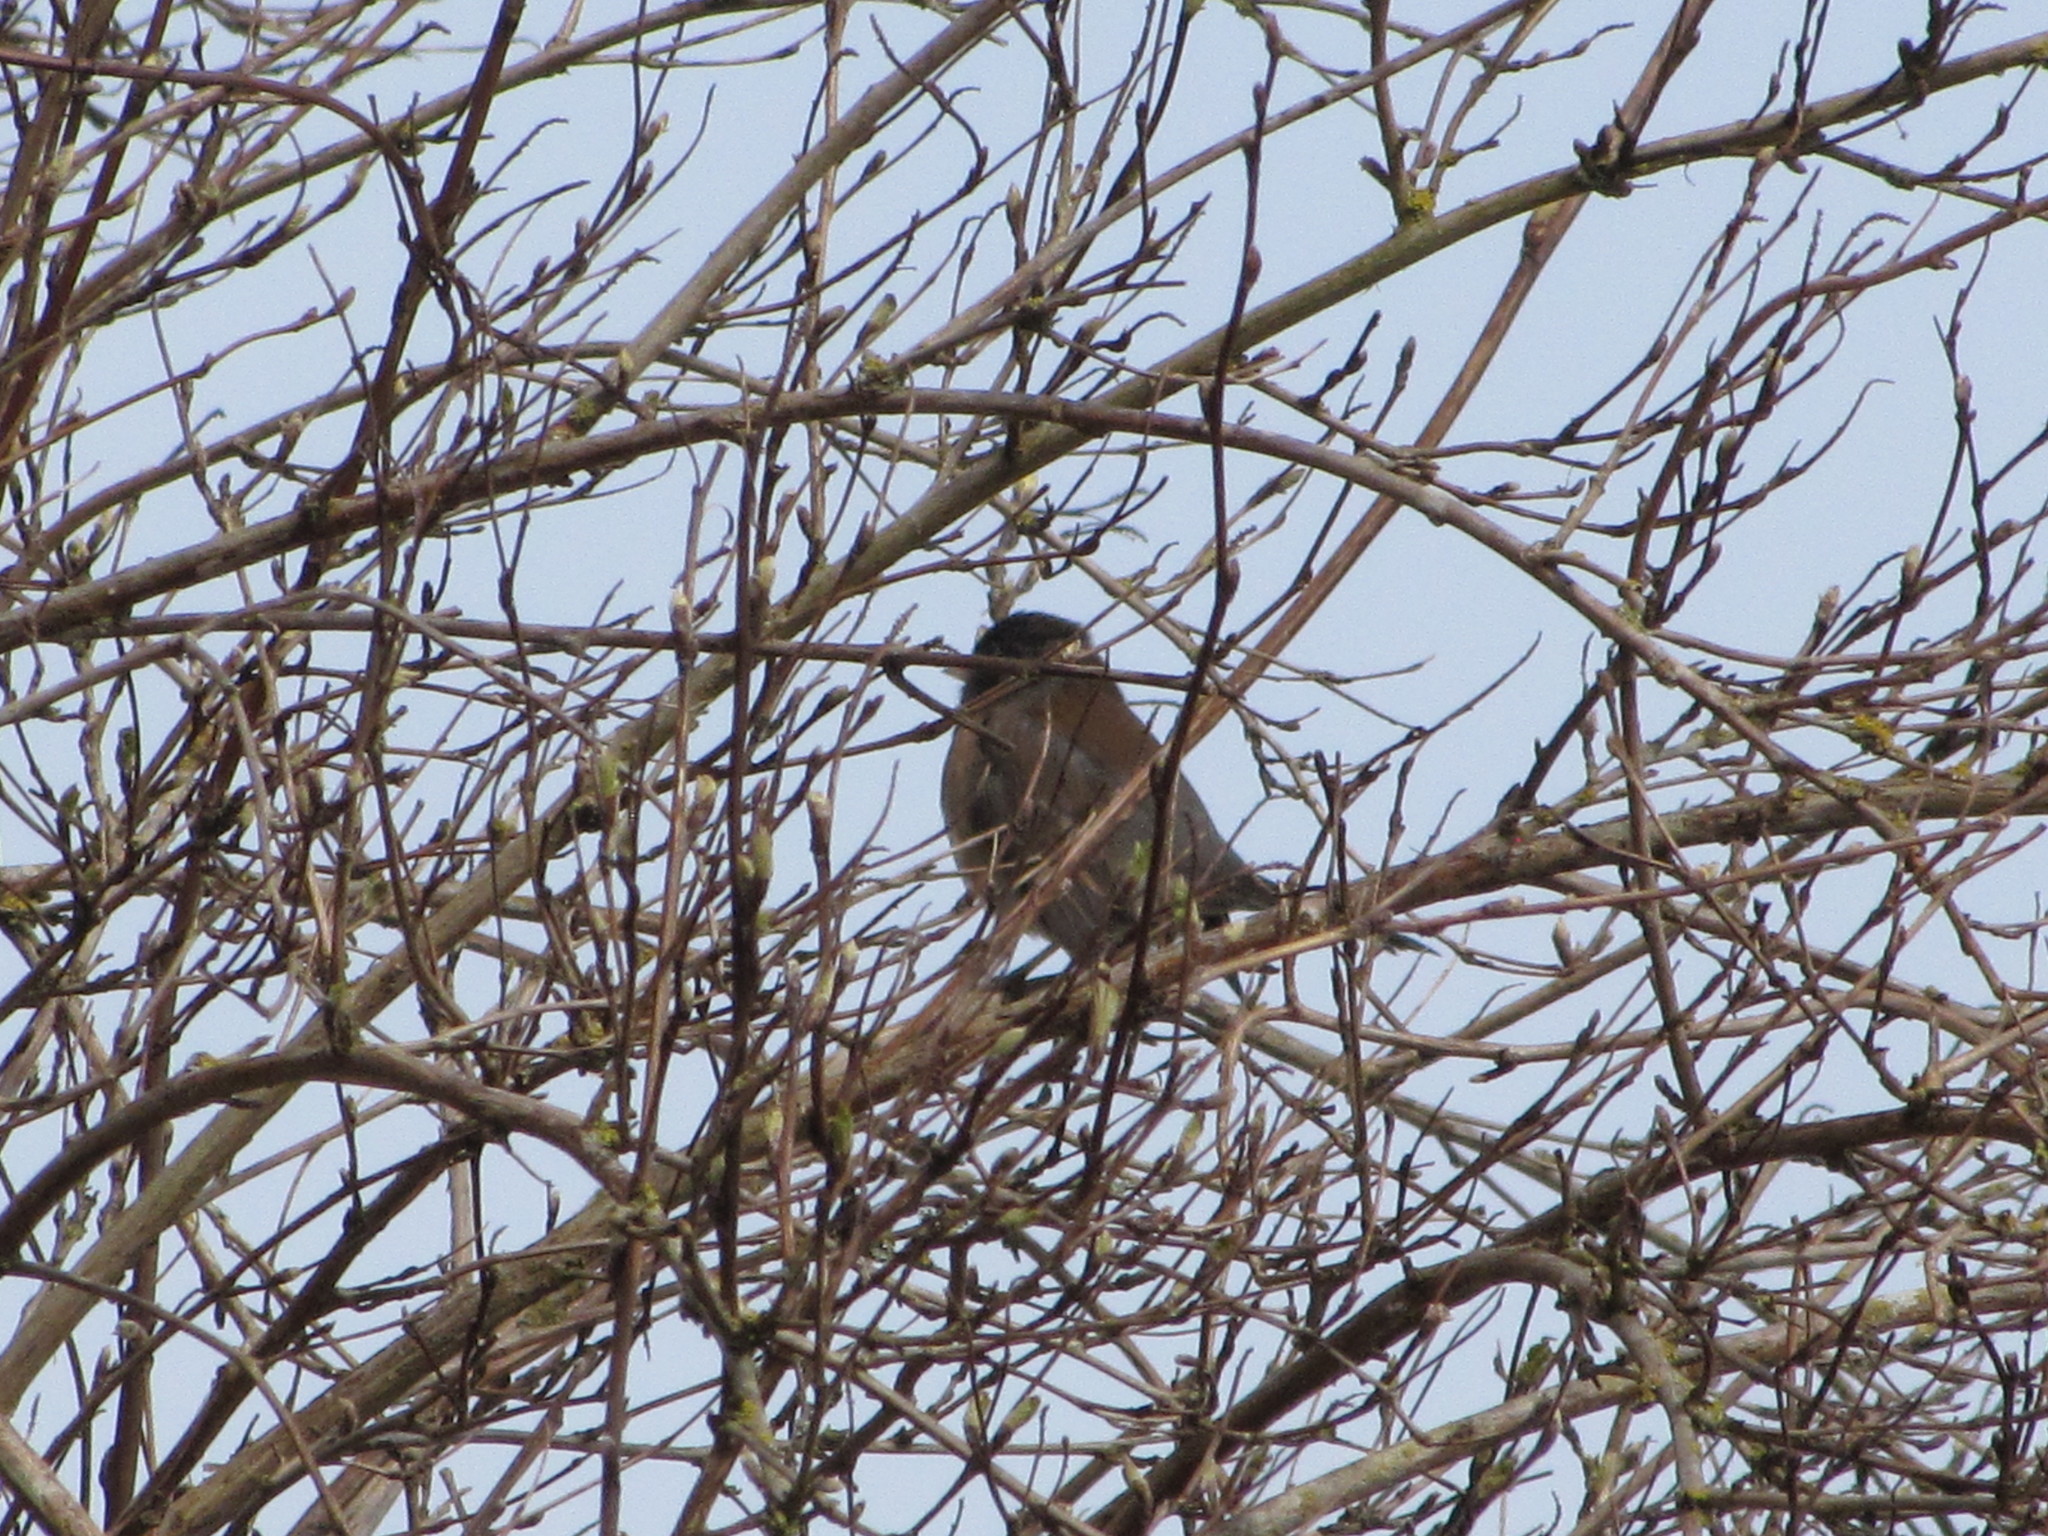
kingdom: Animalia
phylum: Chordata
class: Aves
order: Passeriformes
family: Passerellidae
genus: Junco
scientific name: Junco hyemalis
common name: Dark-eyed junco
